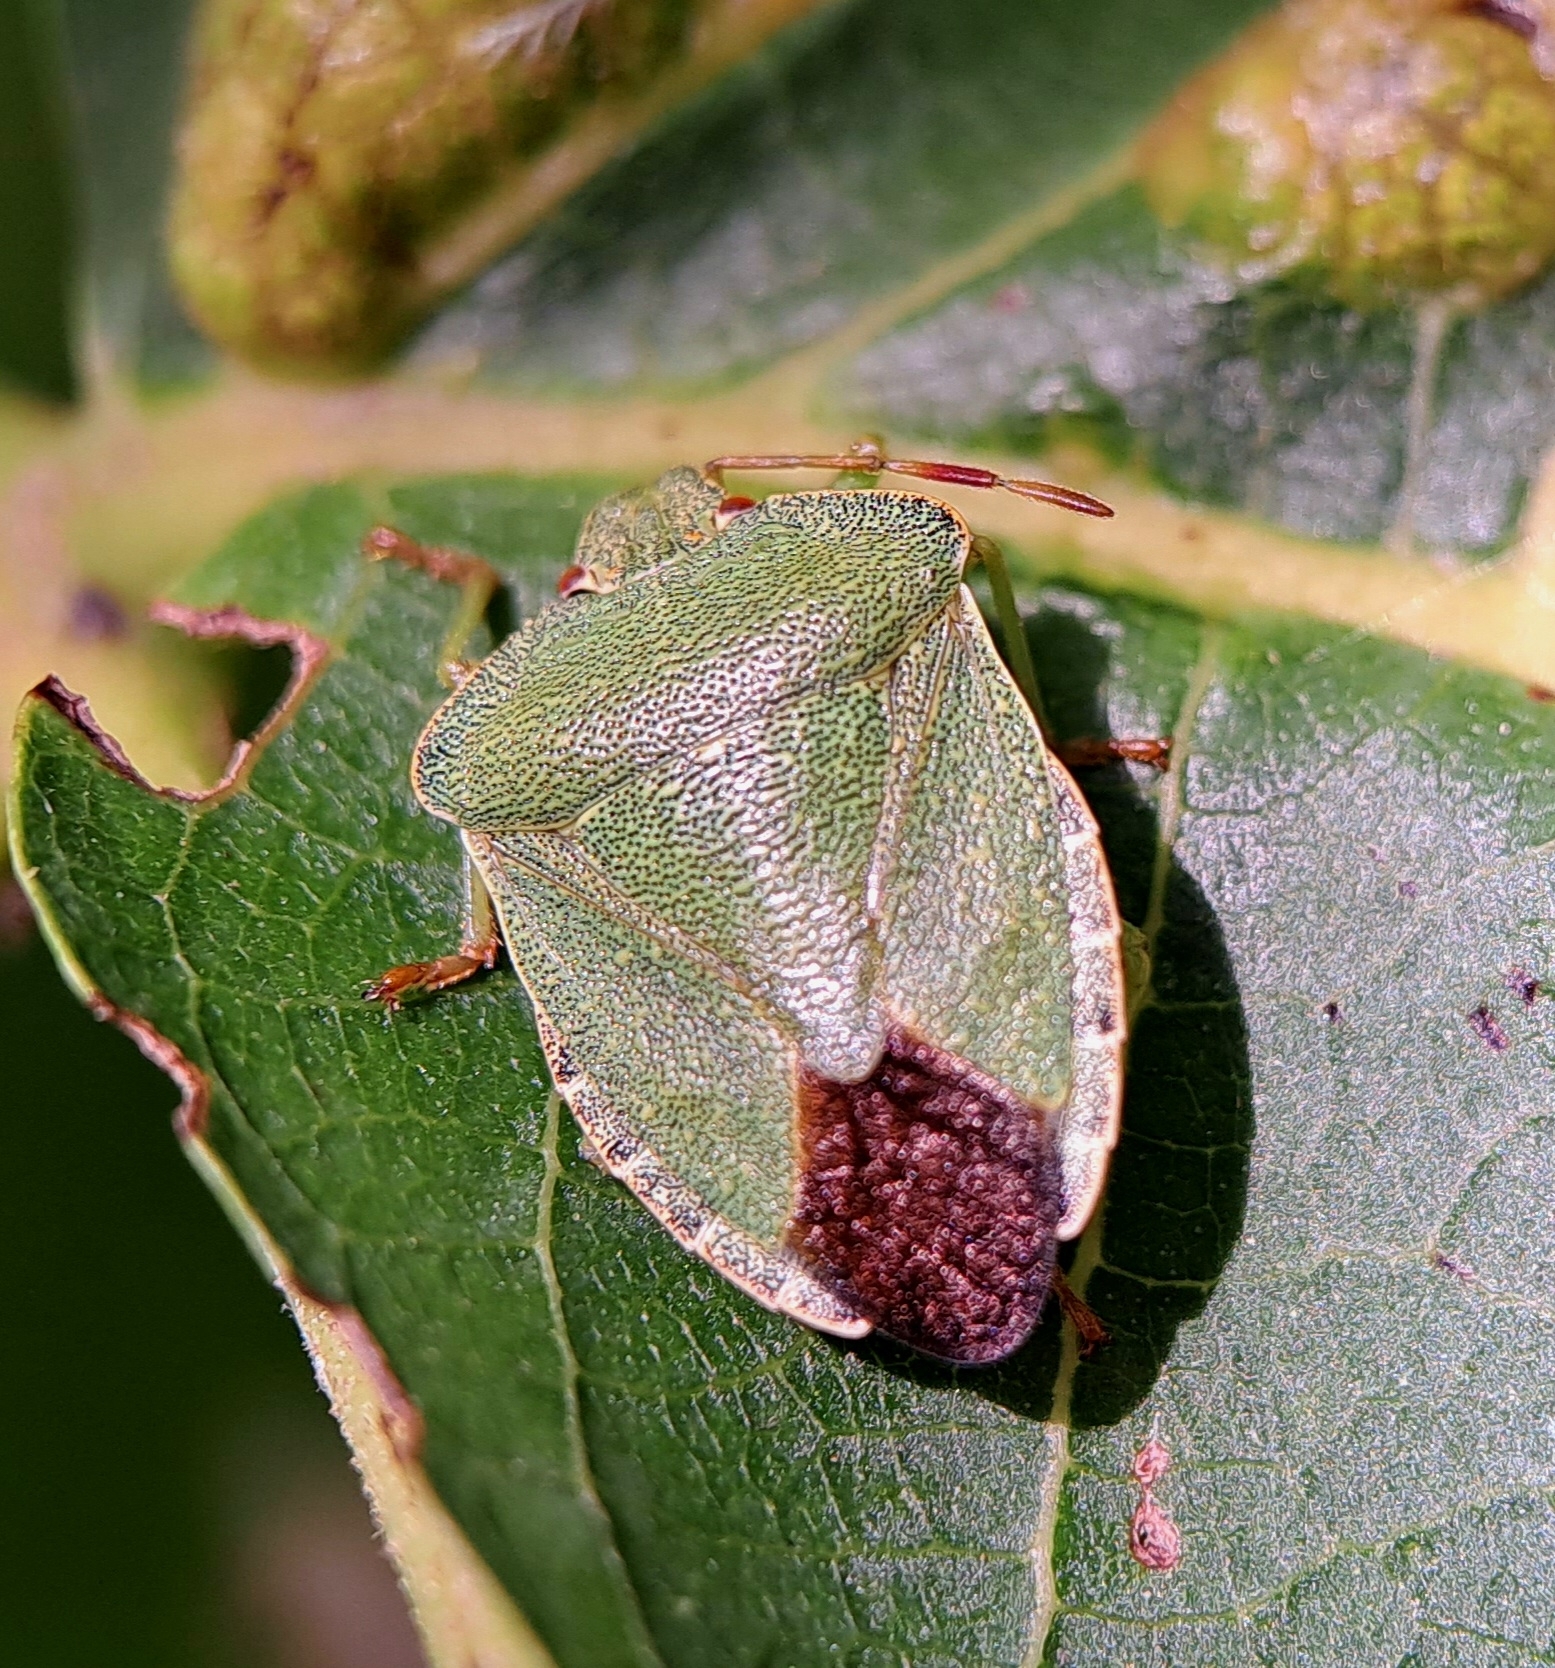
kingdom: Animalia
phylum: Arthropoda
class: Insecta
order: Hemiptera
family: Pentatomidae
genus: Palomena
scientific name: Palomena prasina
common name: Green shieldbug
